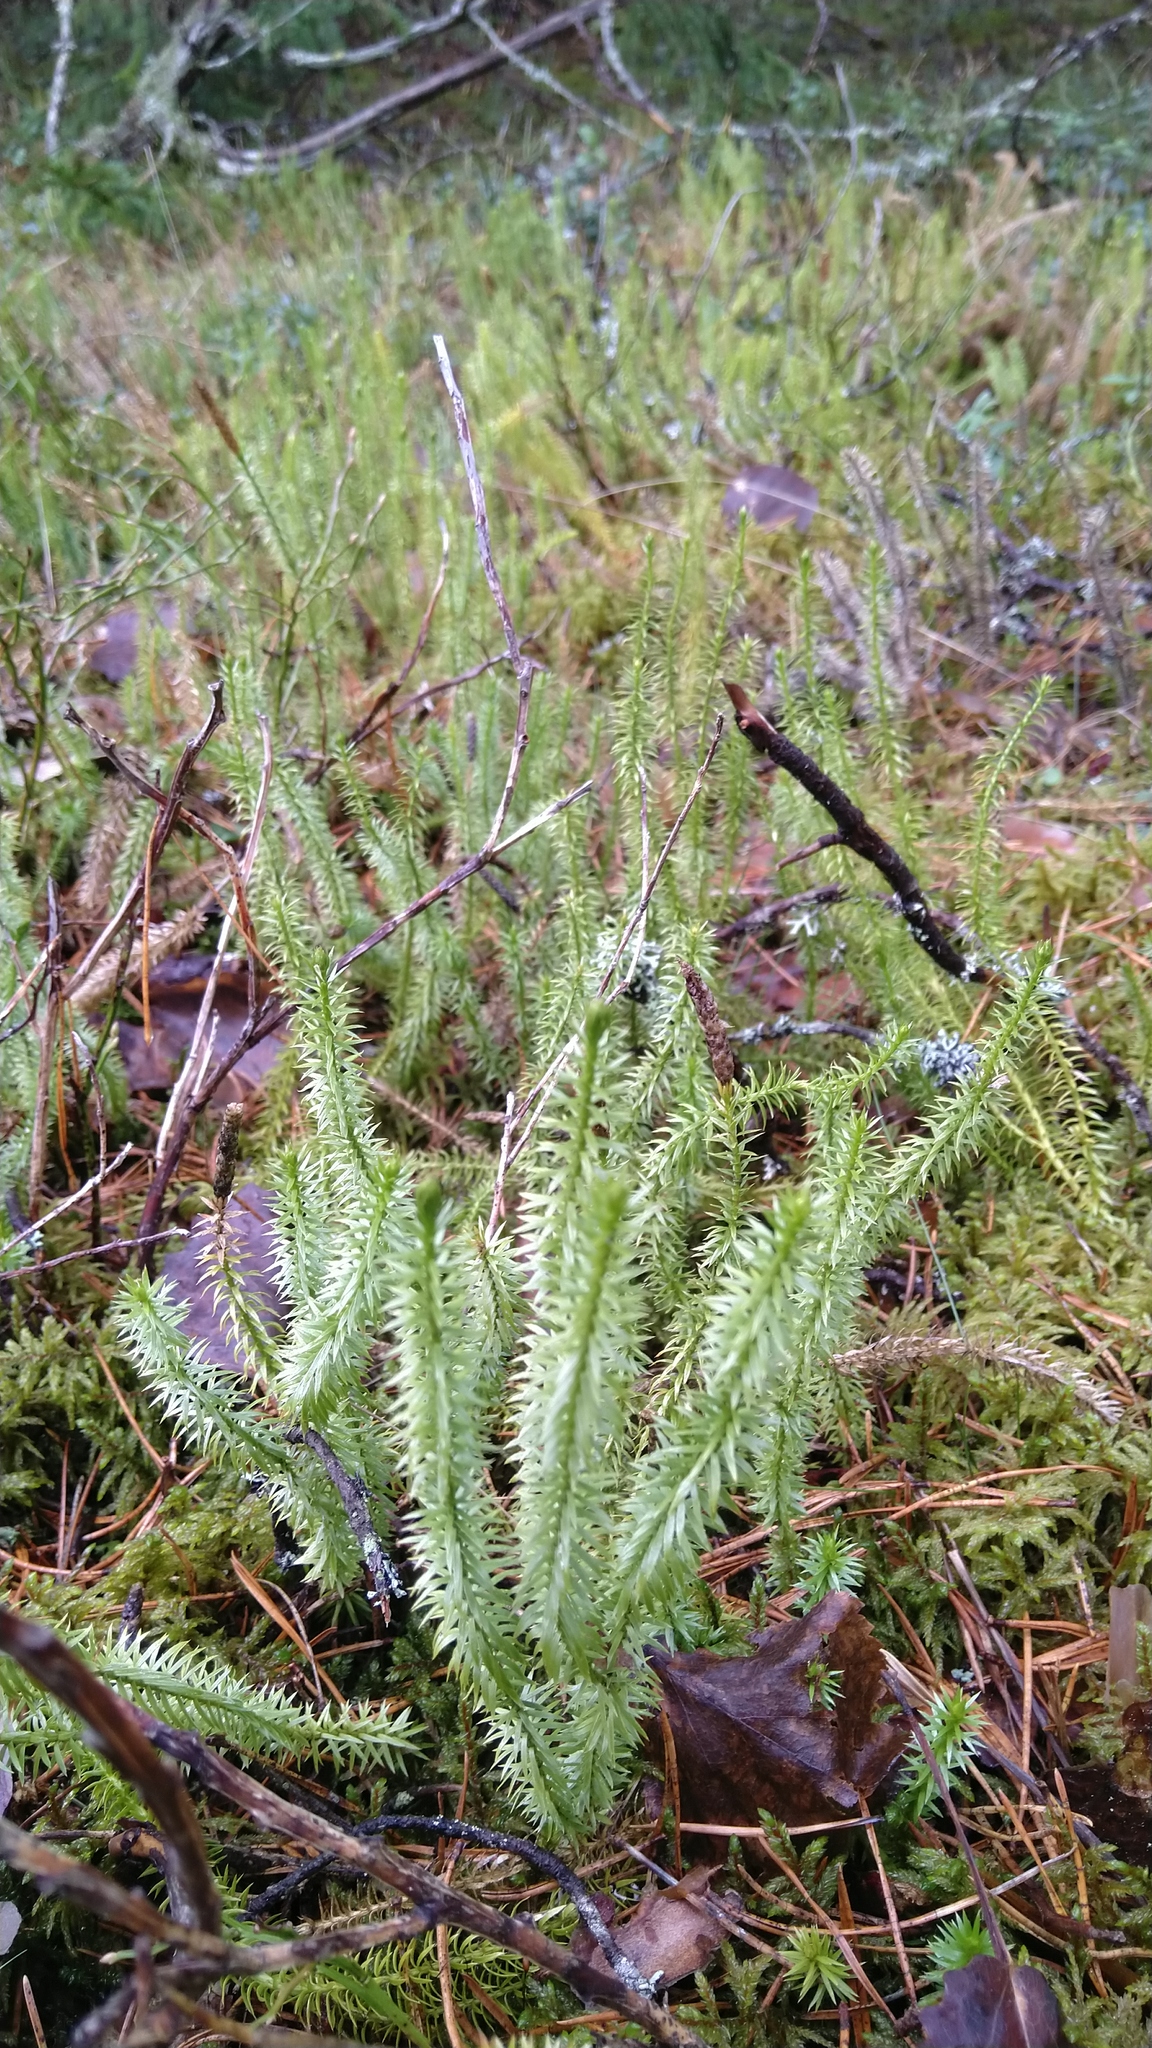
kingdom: Plantae
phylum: Tracheophyta
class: Lycopodiopsida
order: Lycopodiales
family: Lycopodiaceae
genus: Spinulum
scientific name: Spinulum annotinum
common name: Interrupted club-moss
